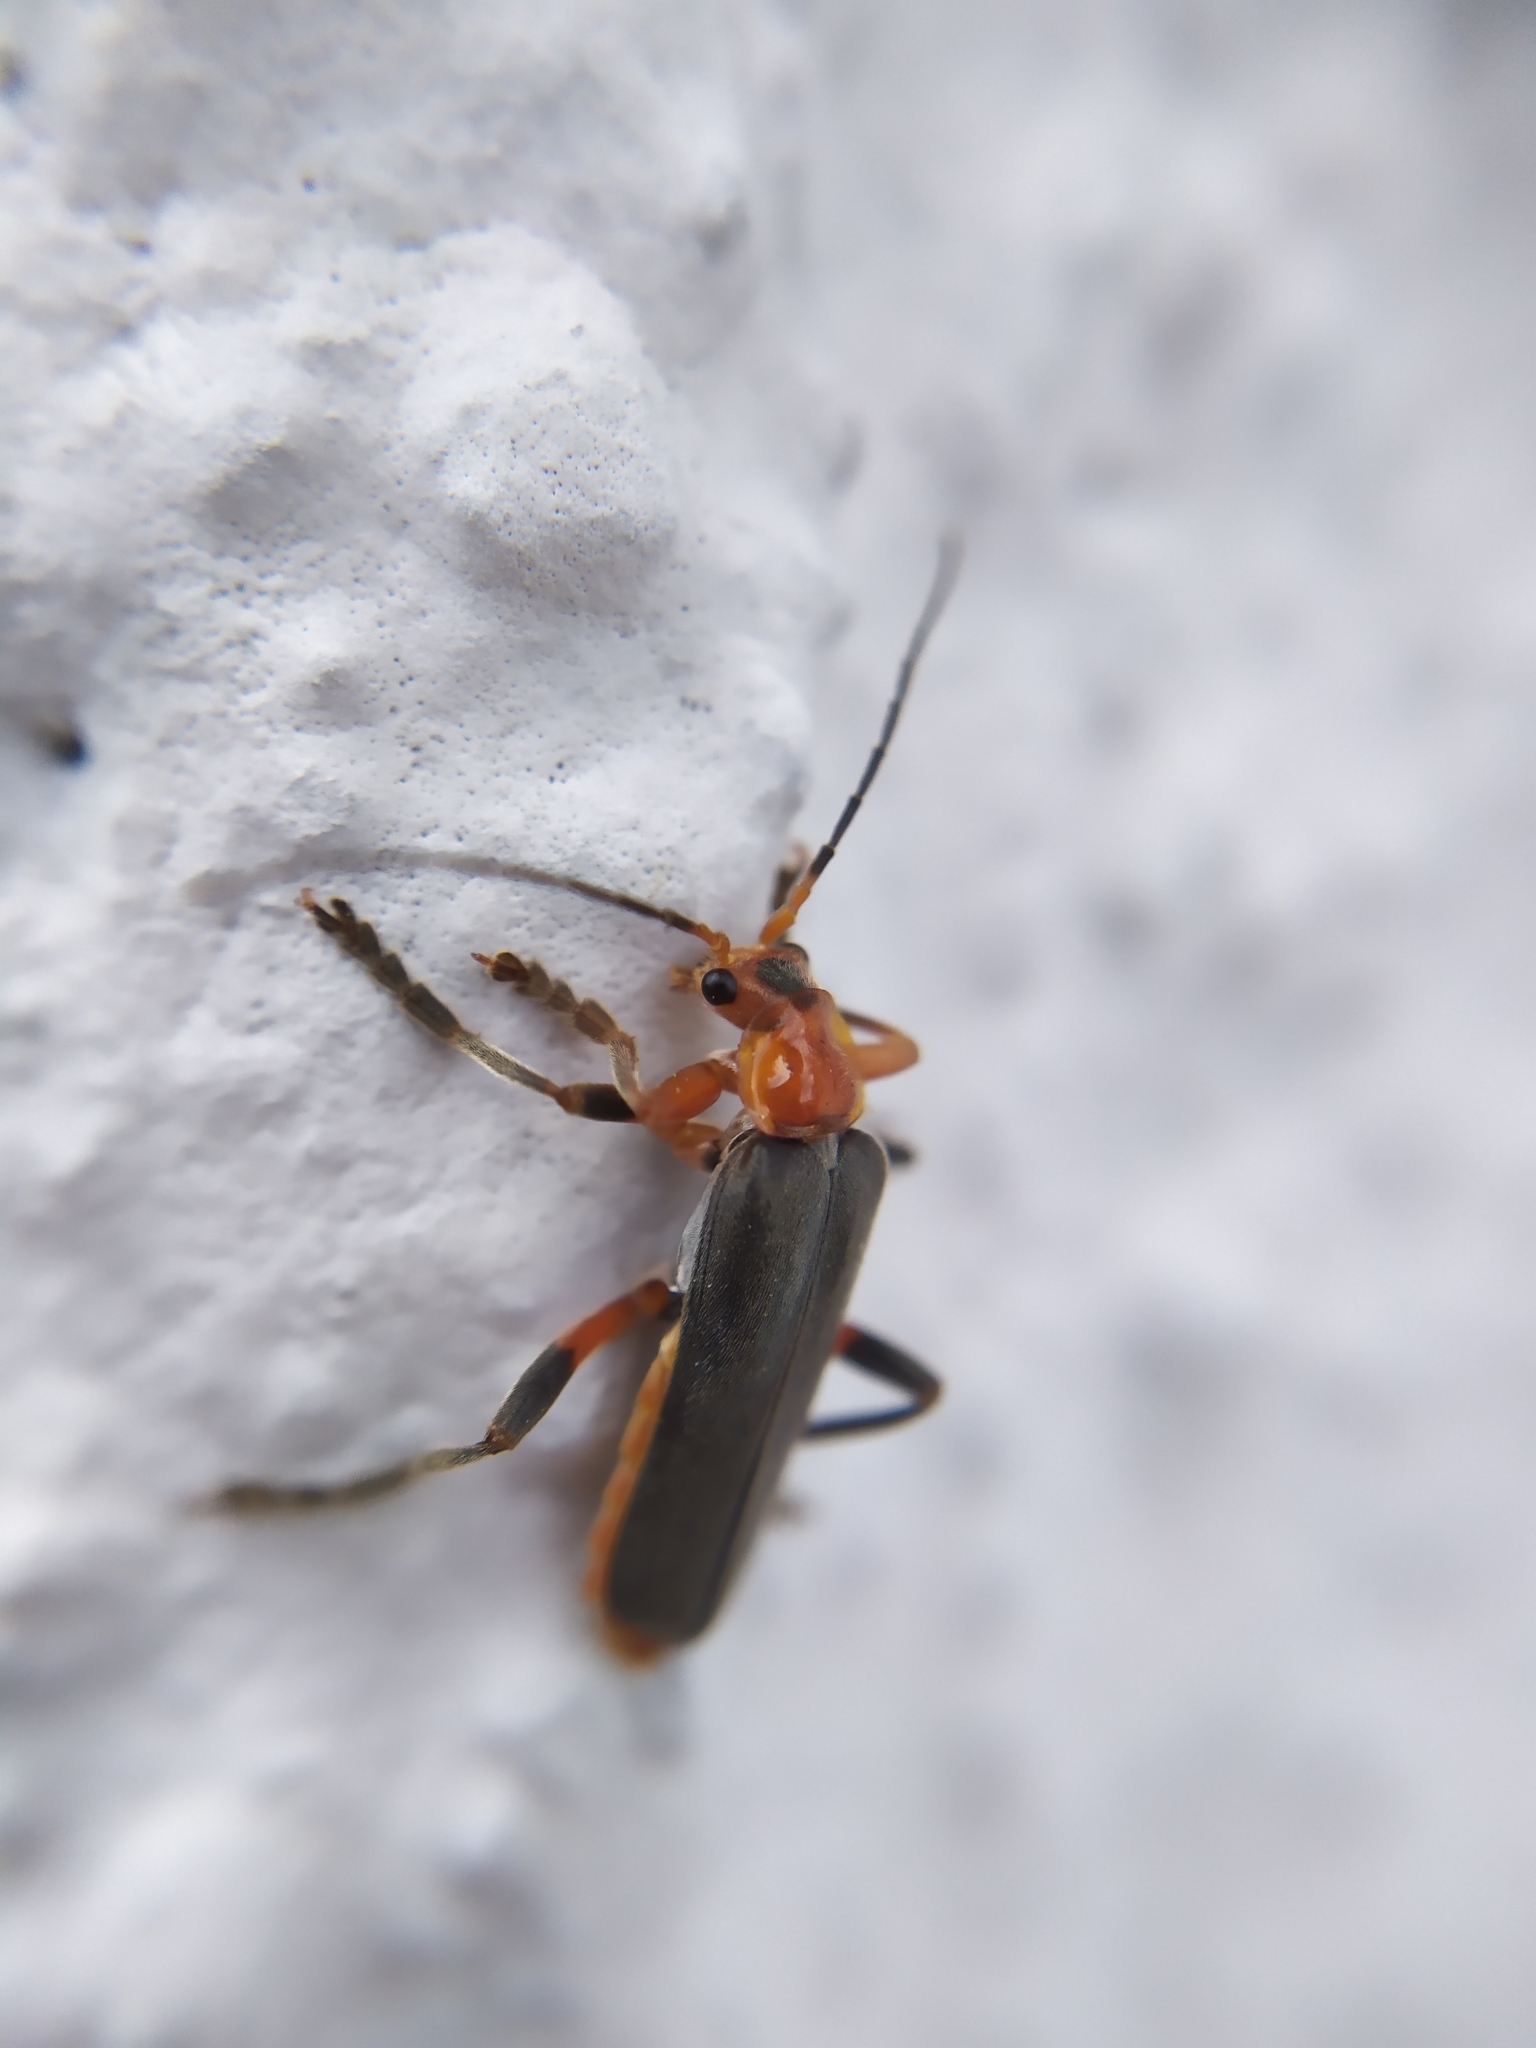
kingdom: Animalia
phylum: Arthropoda
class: Insecta
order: Coleoptera
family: Cantharidae
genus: Cantharis
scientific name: Cantharis livida
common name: Livid soldier beetle
